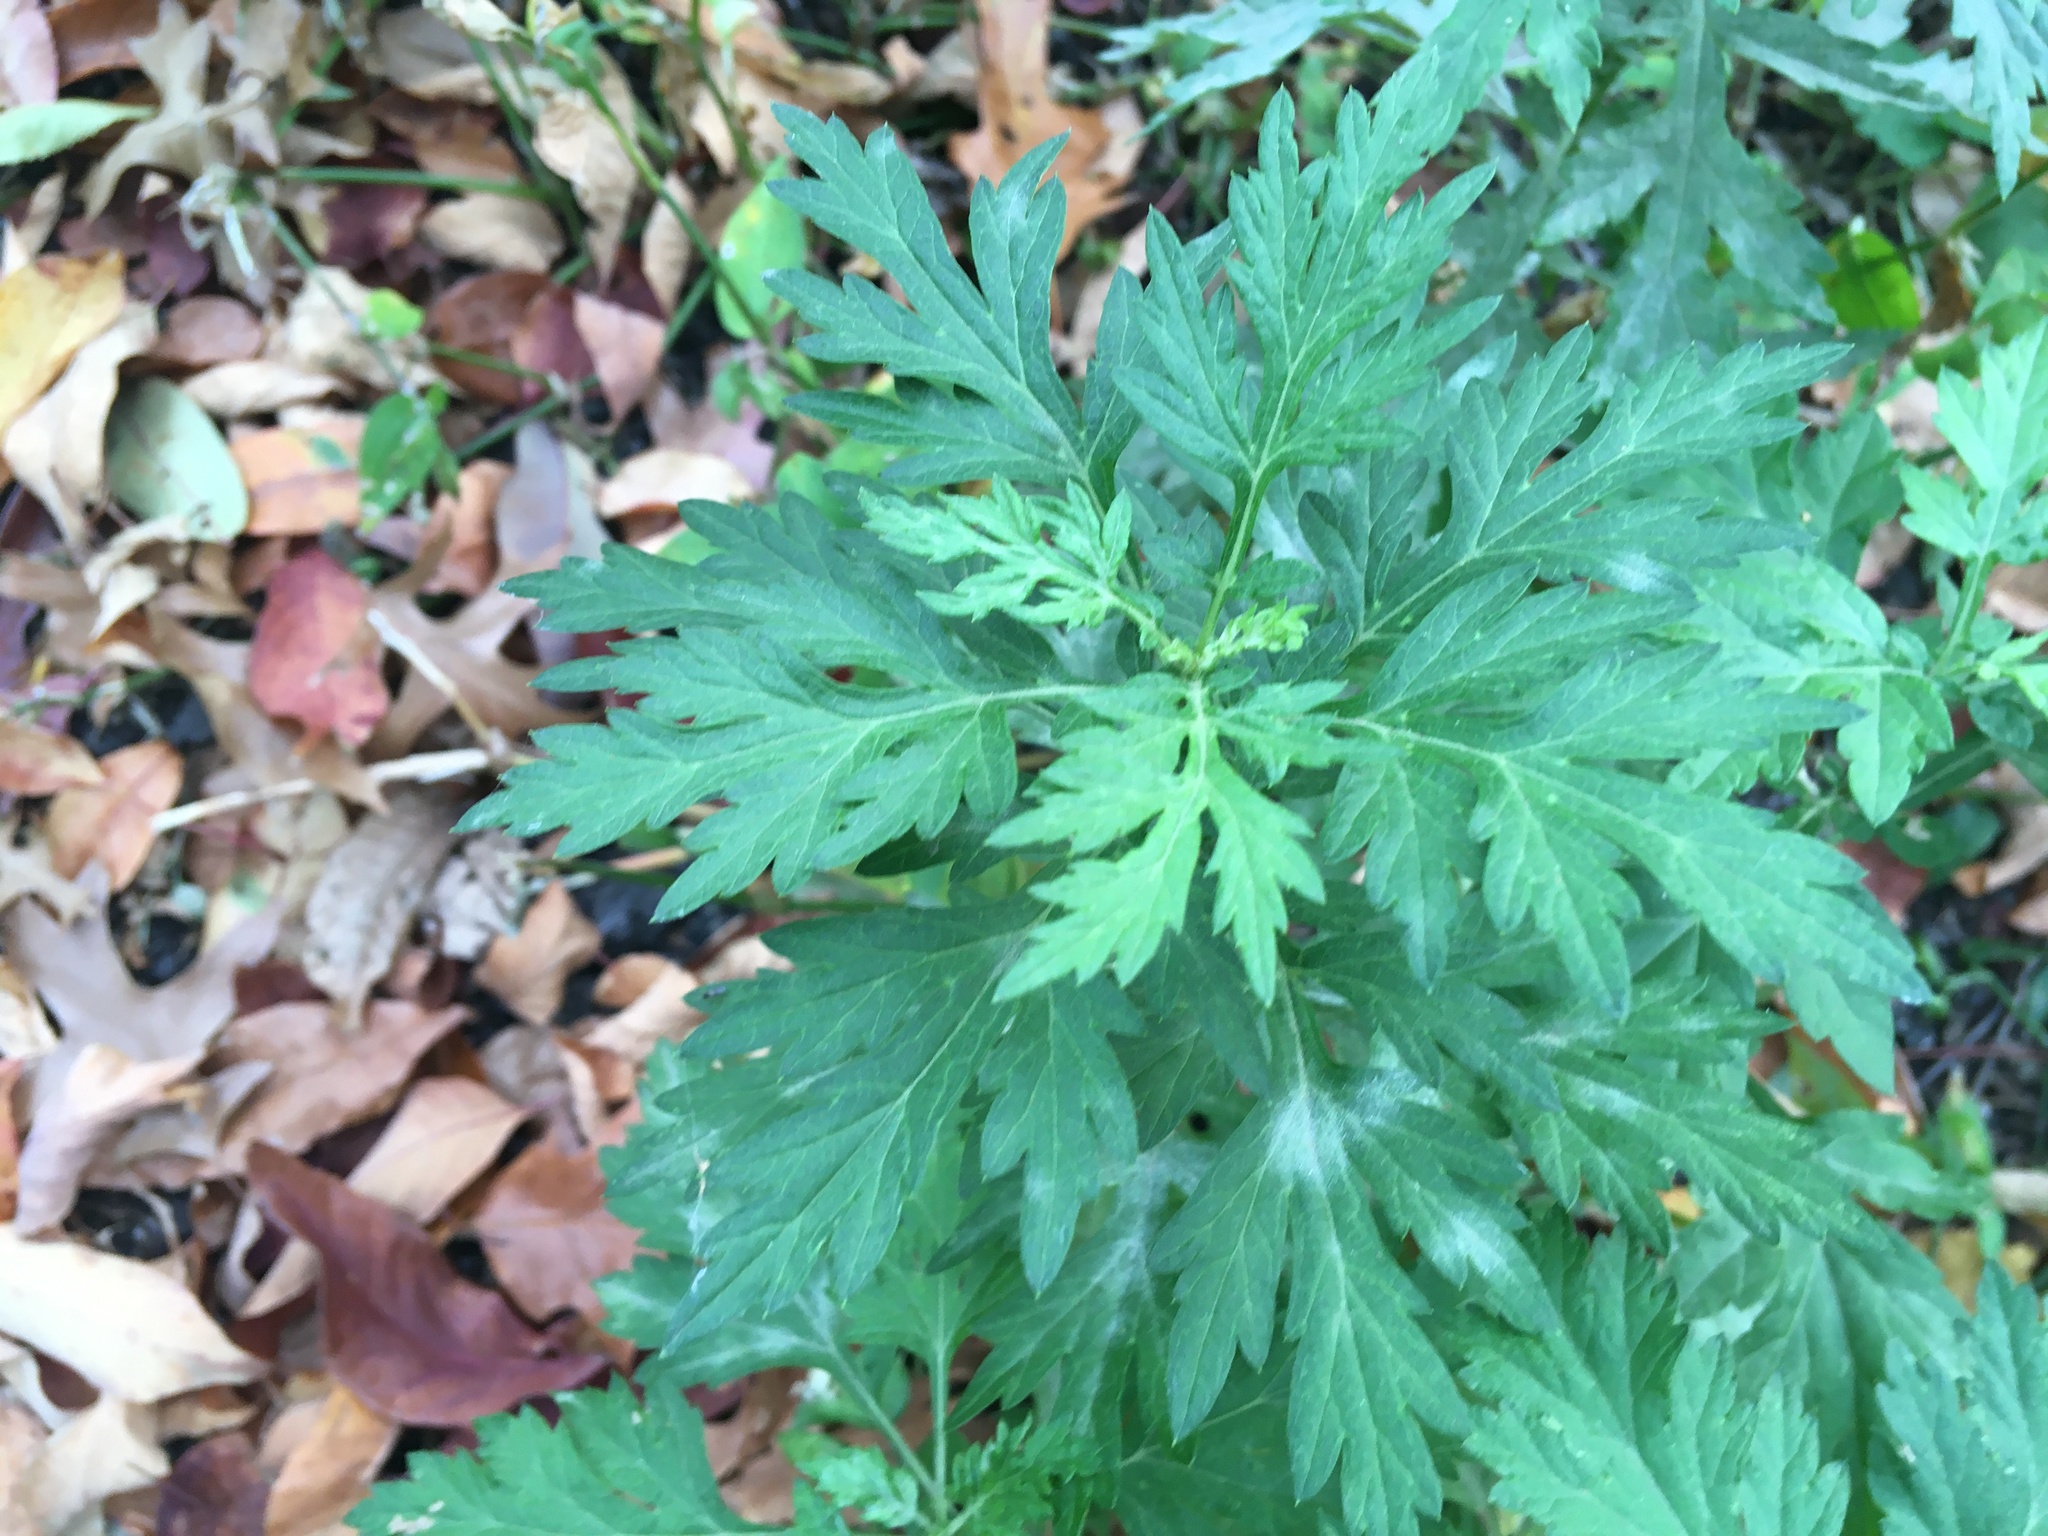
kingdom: Plantae
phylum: Tracheophyta
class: Magnoliopsida
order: Asterales
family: Asteraceae
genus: Artemisia
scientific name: Artemisia vulgaris
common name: Mugwort
